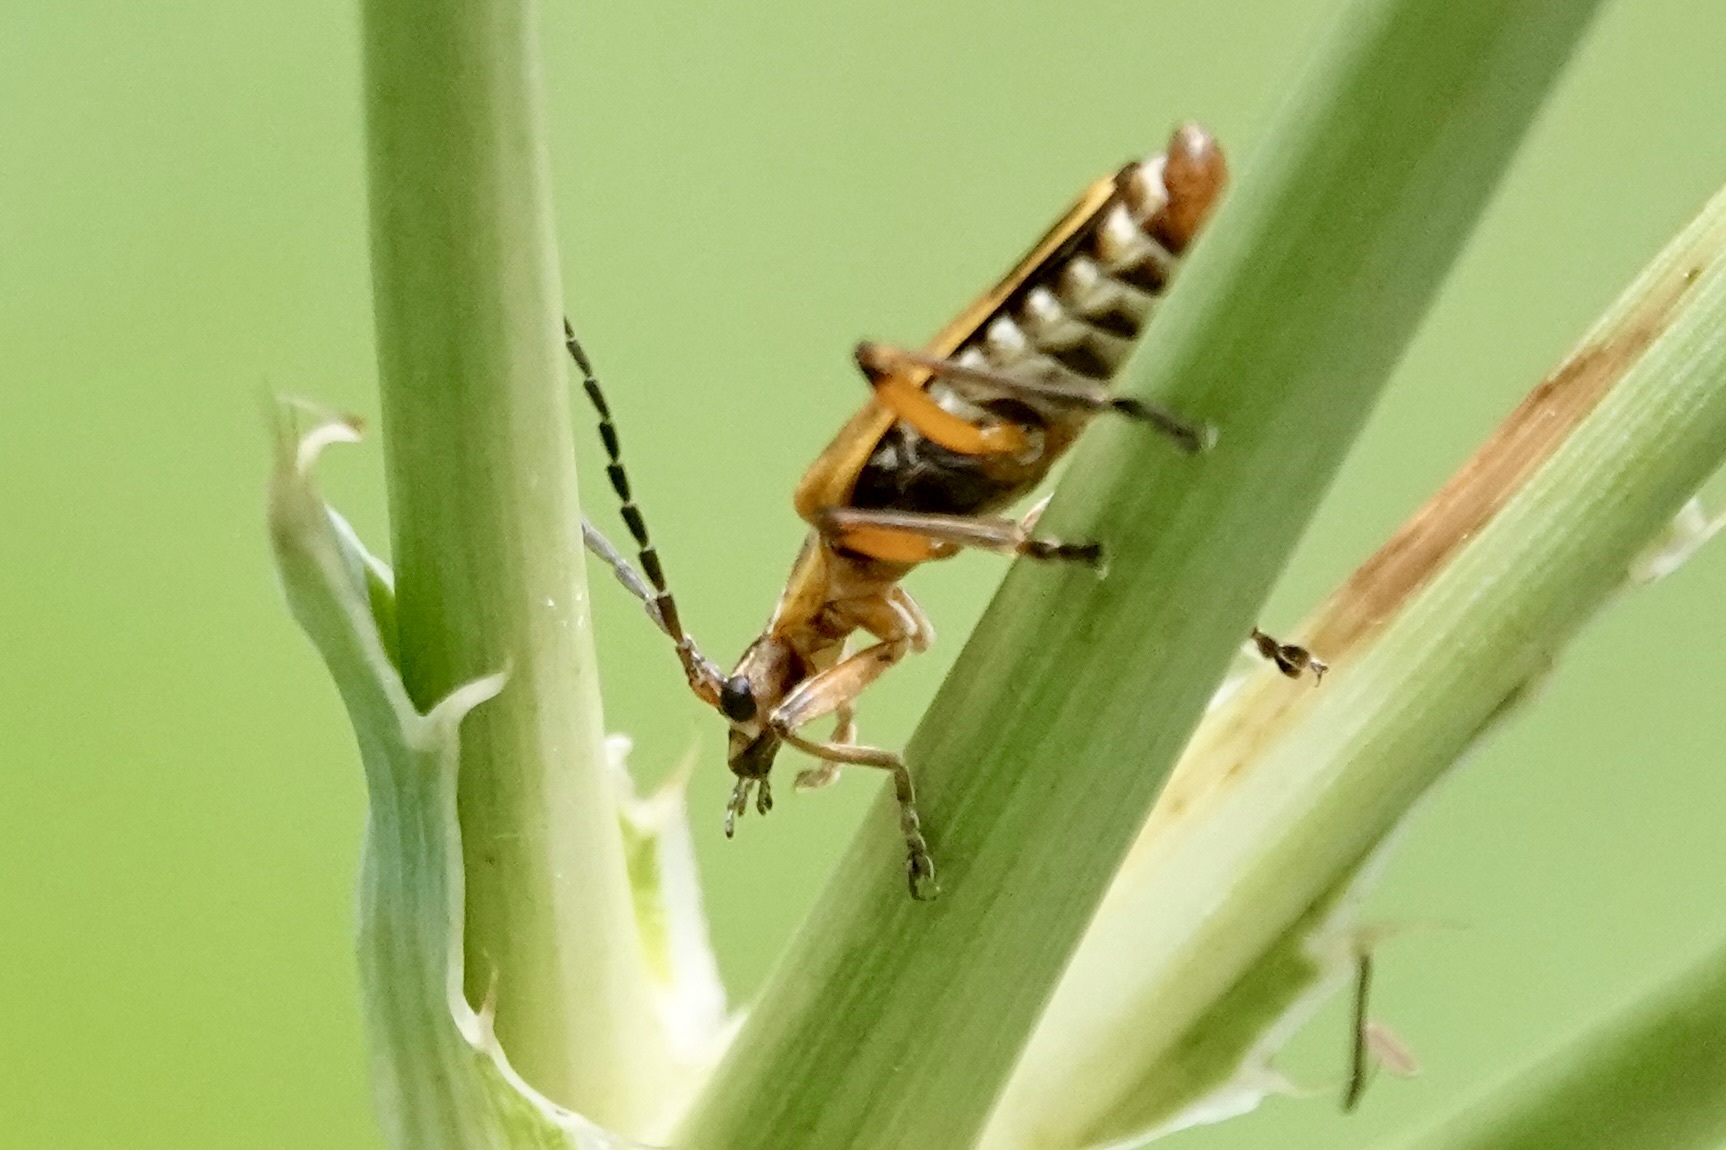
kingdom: Animalia
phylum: Arthropoda
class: Insecta
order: Coleoptera
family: Cantharidae
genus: Chauliognathus
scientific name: Chauliognathus marginatus
